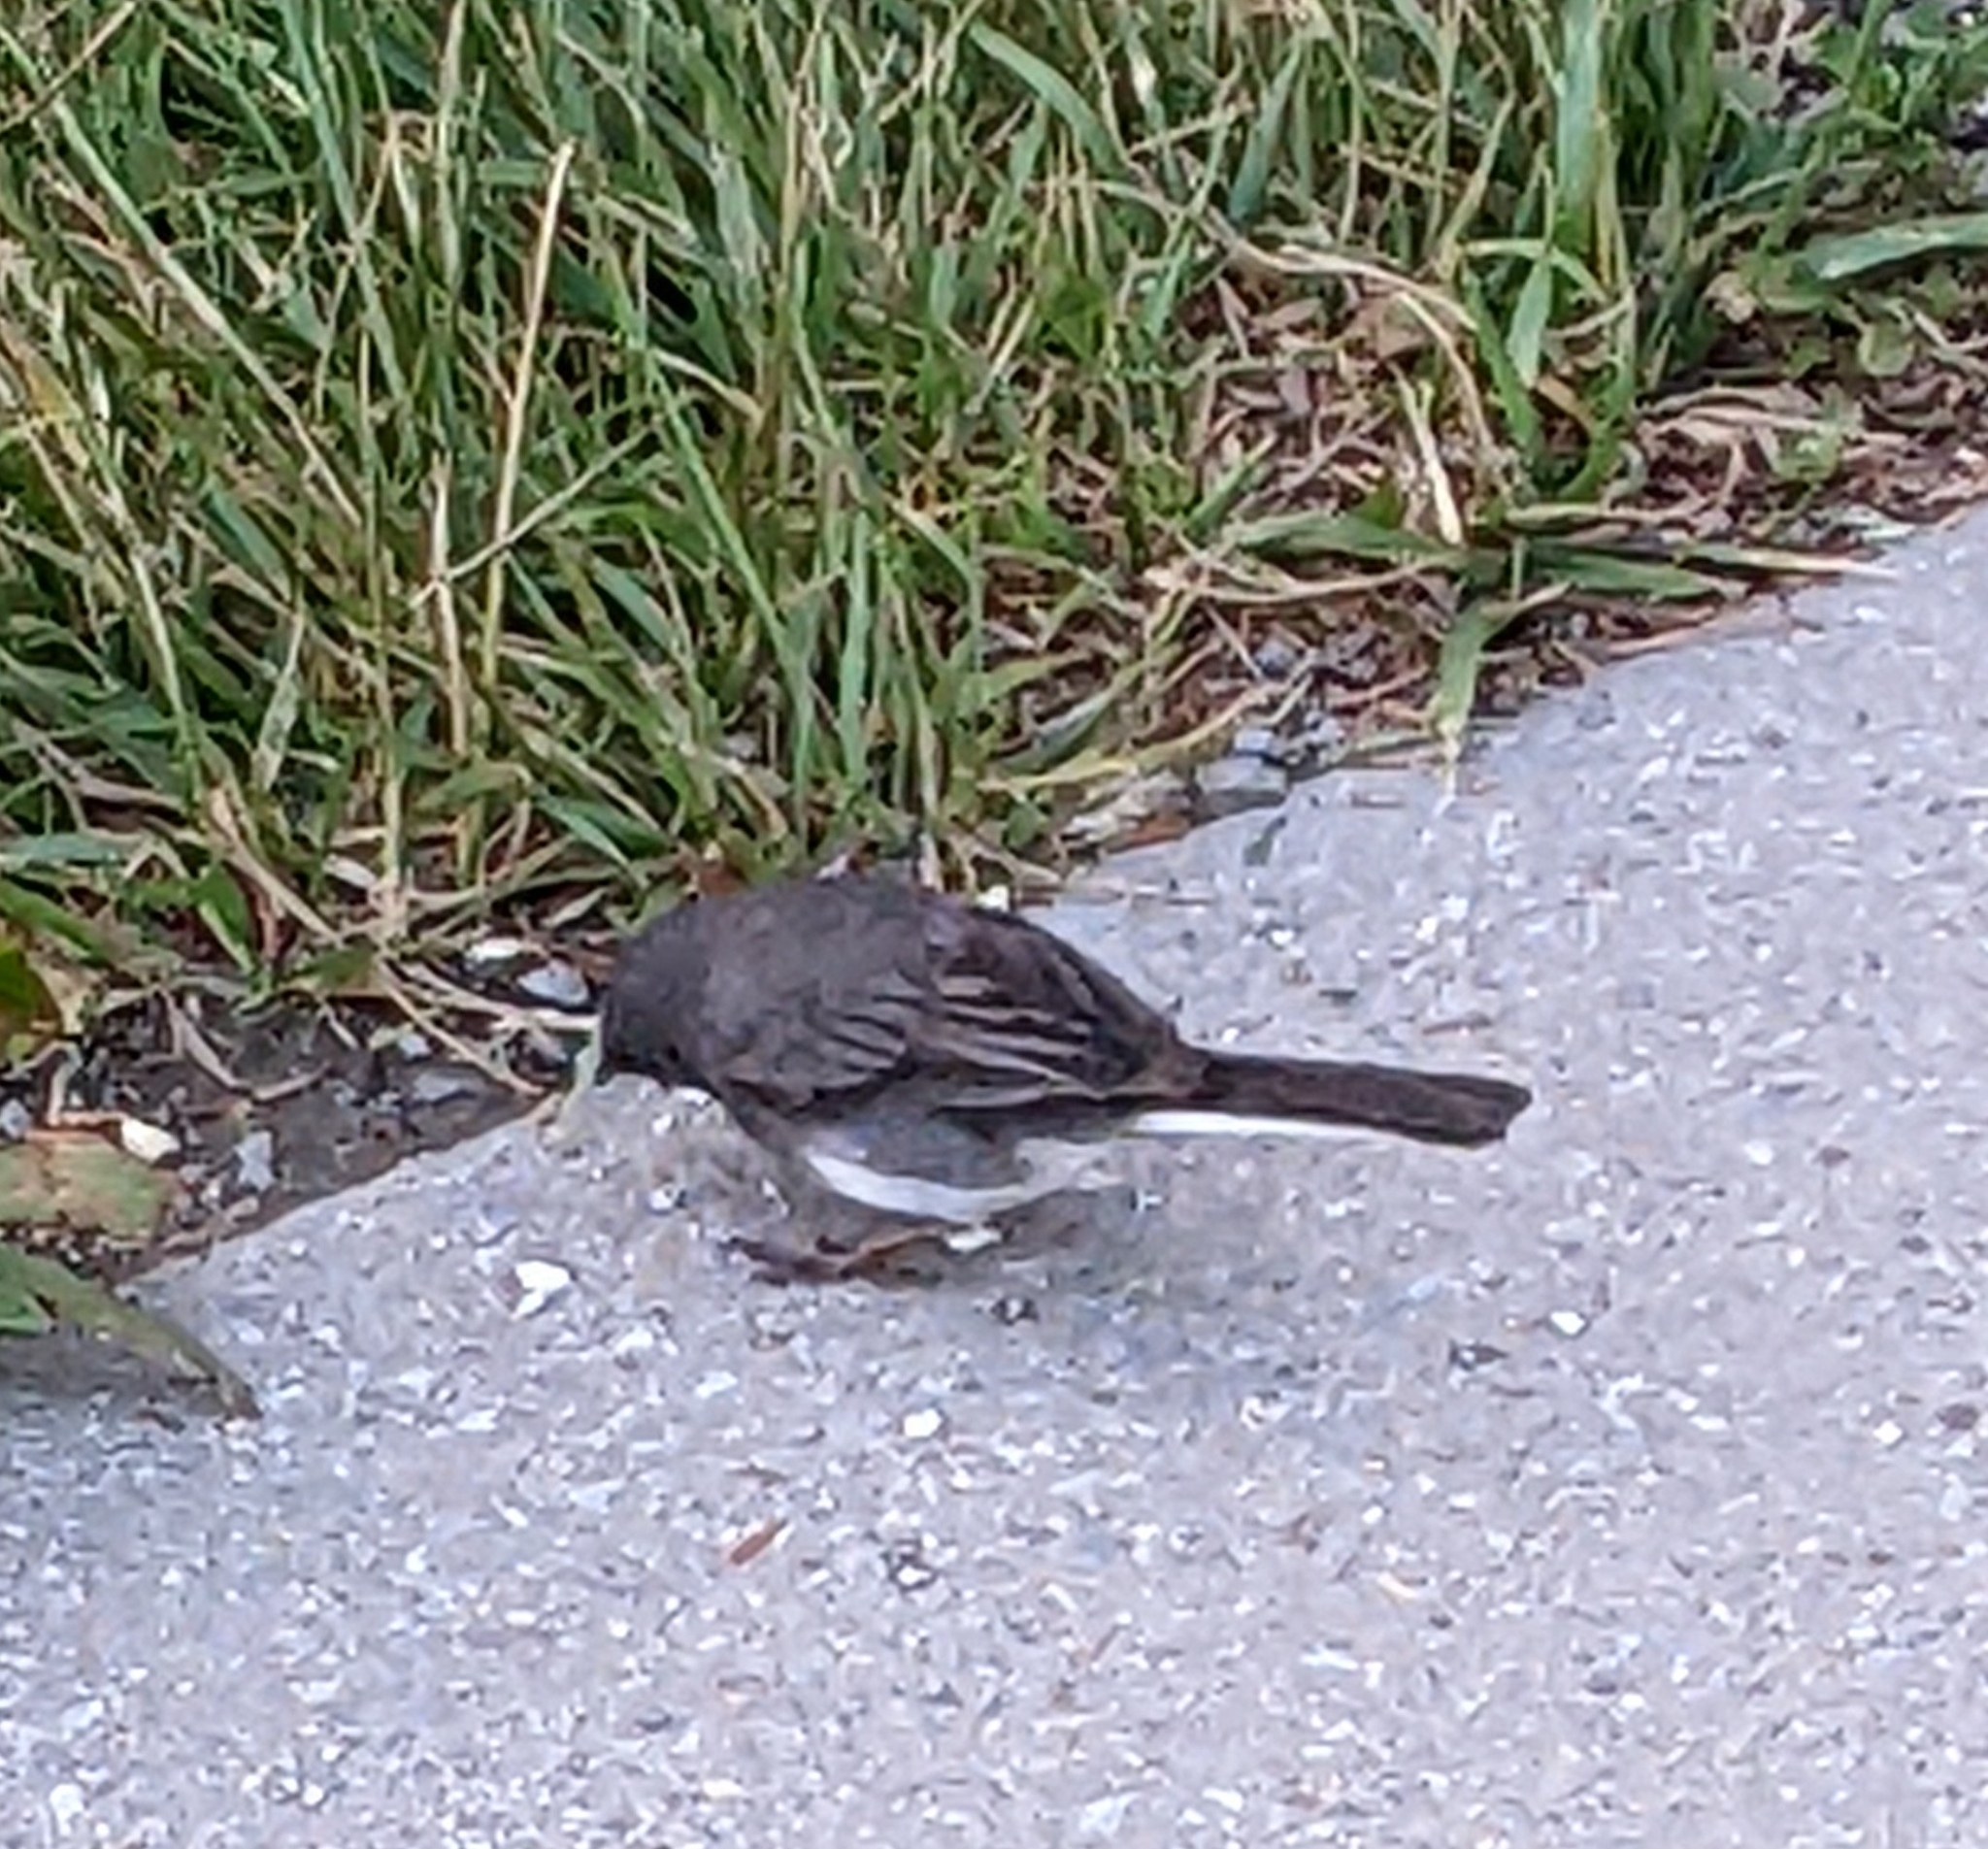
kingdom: Animalia
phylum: Chordata
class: Aves
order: Passeriformes
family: Passerellidae
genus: Junco
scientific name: Junco hyemalis
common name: Dark-eyed junco
